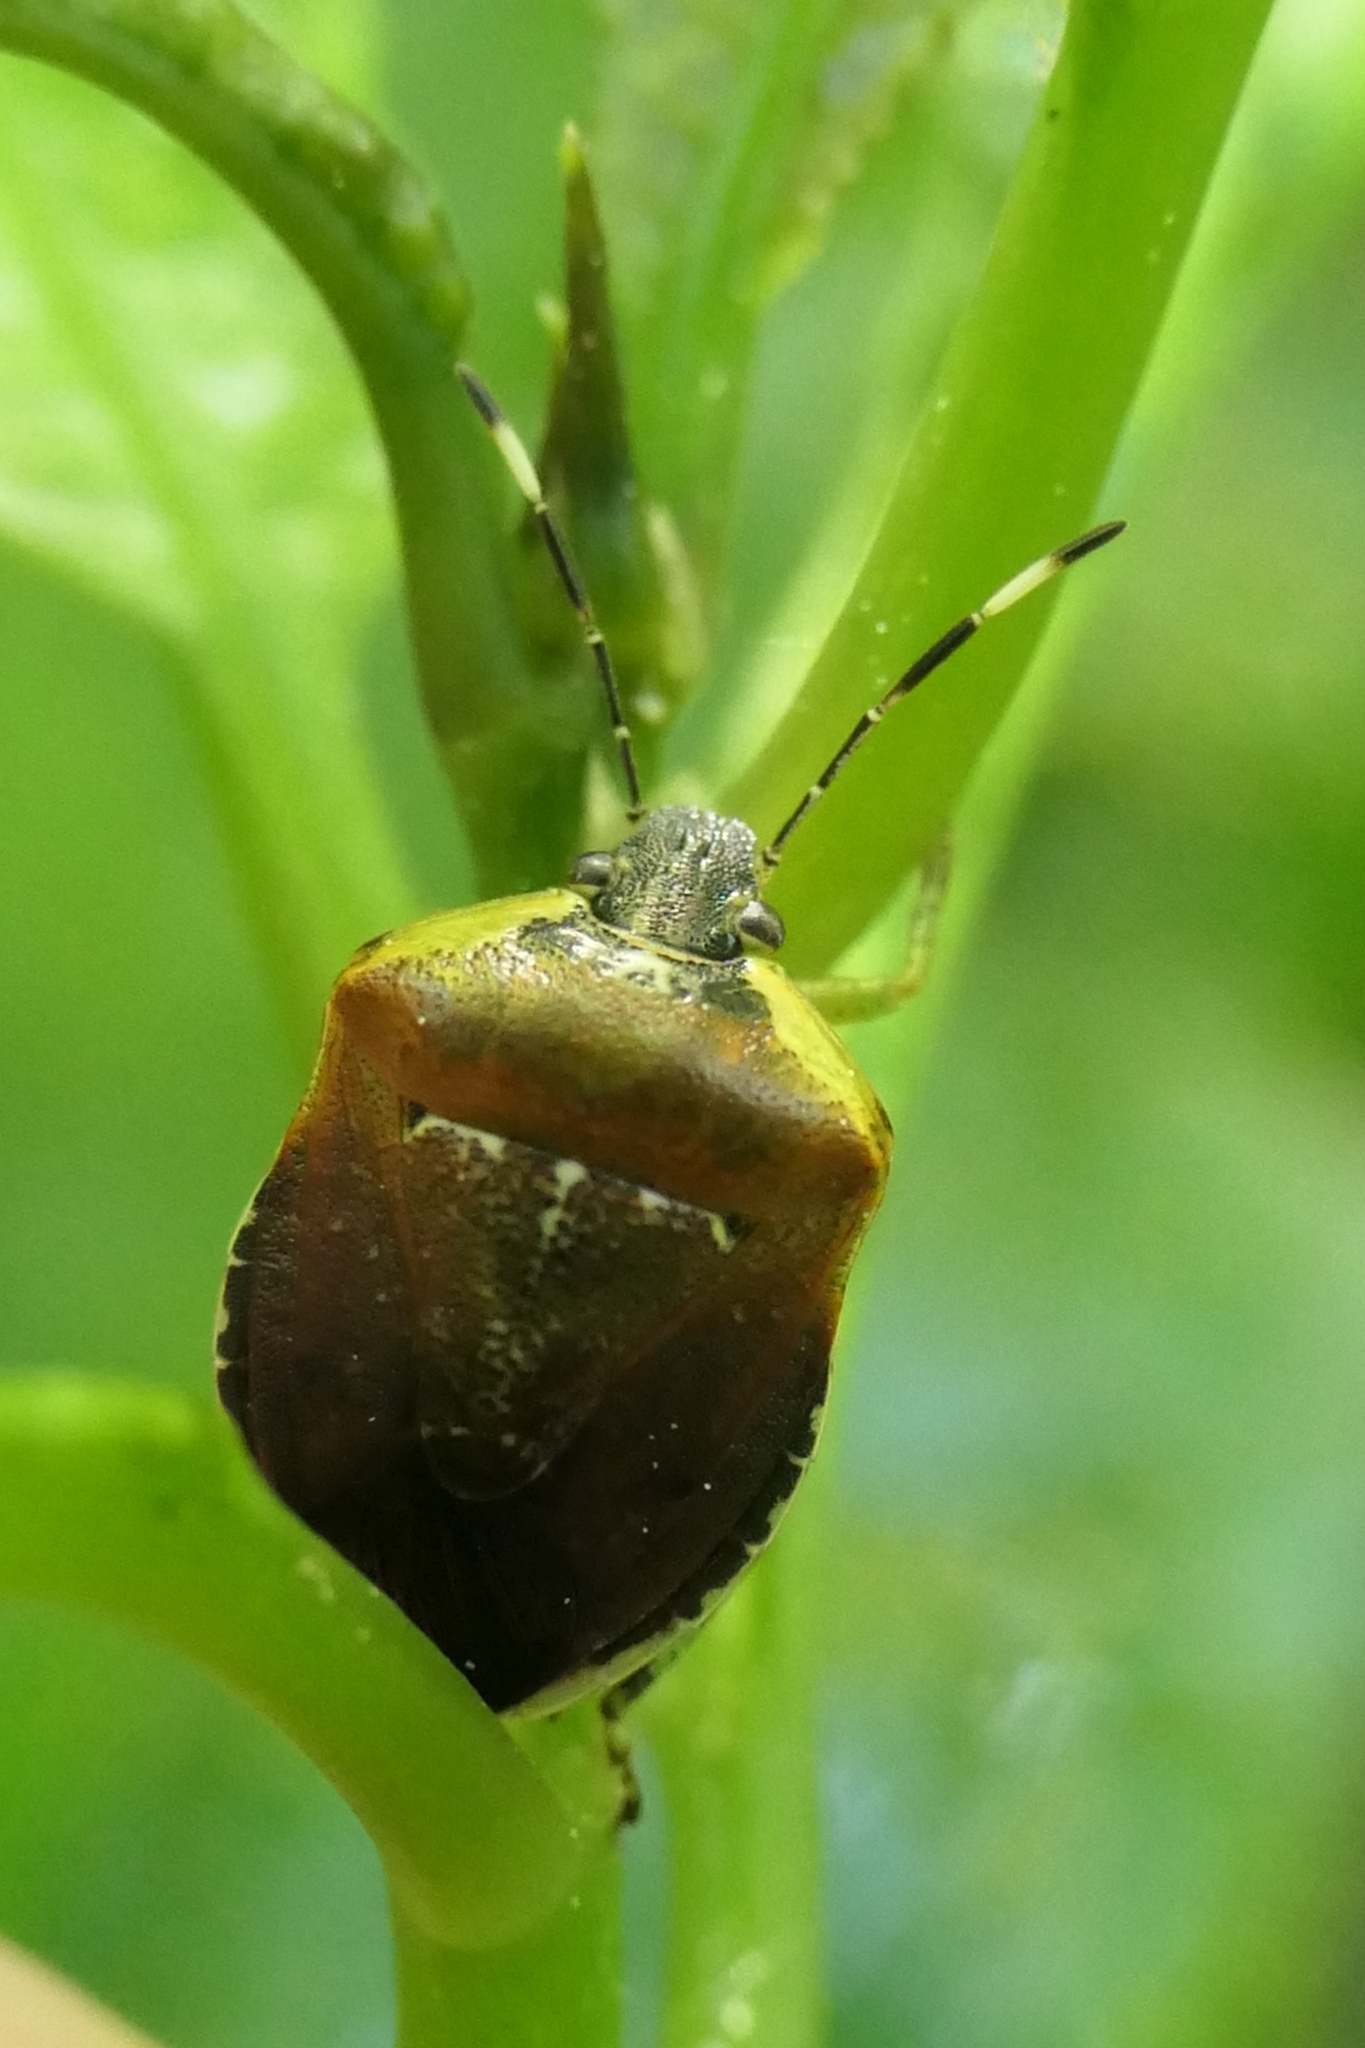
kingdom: Animalia
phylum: Arthropoda
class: Insecta
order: Hemiptera
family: Pentatomidae
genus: Monteithiella
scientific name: Monteithiella
